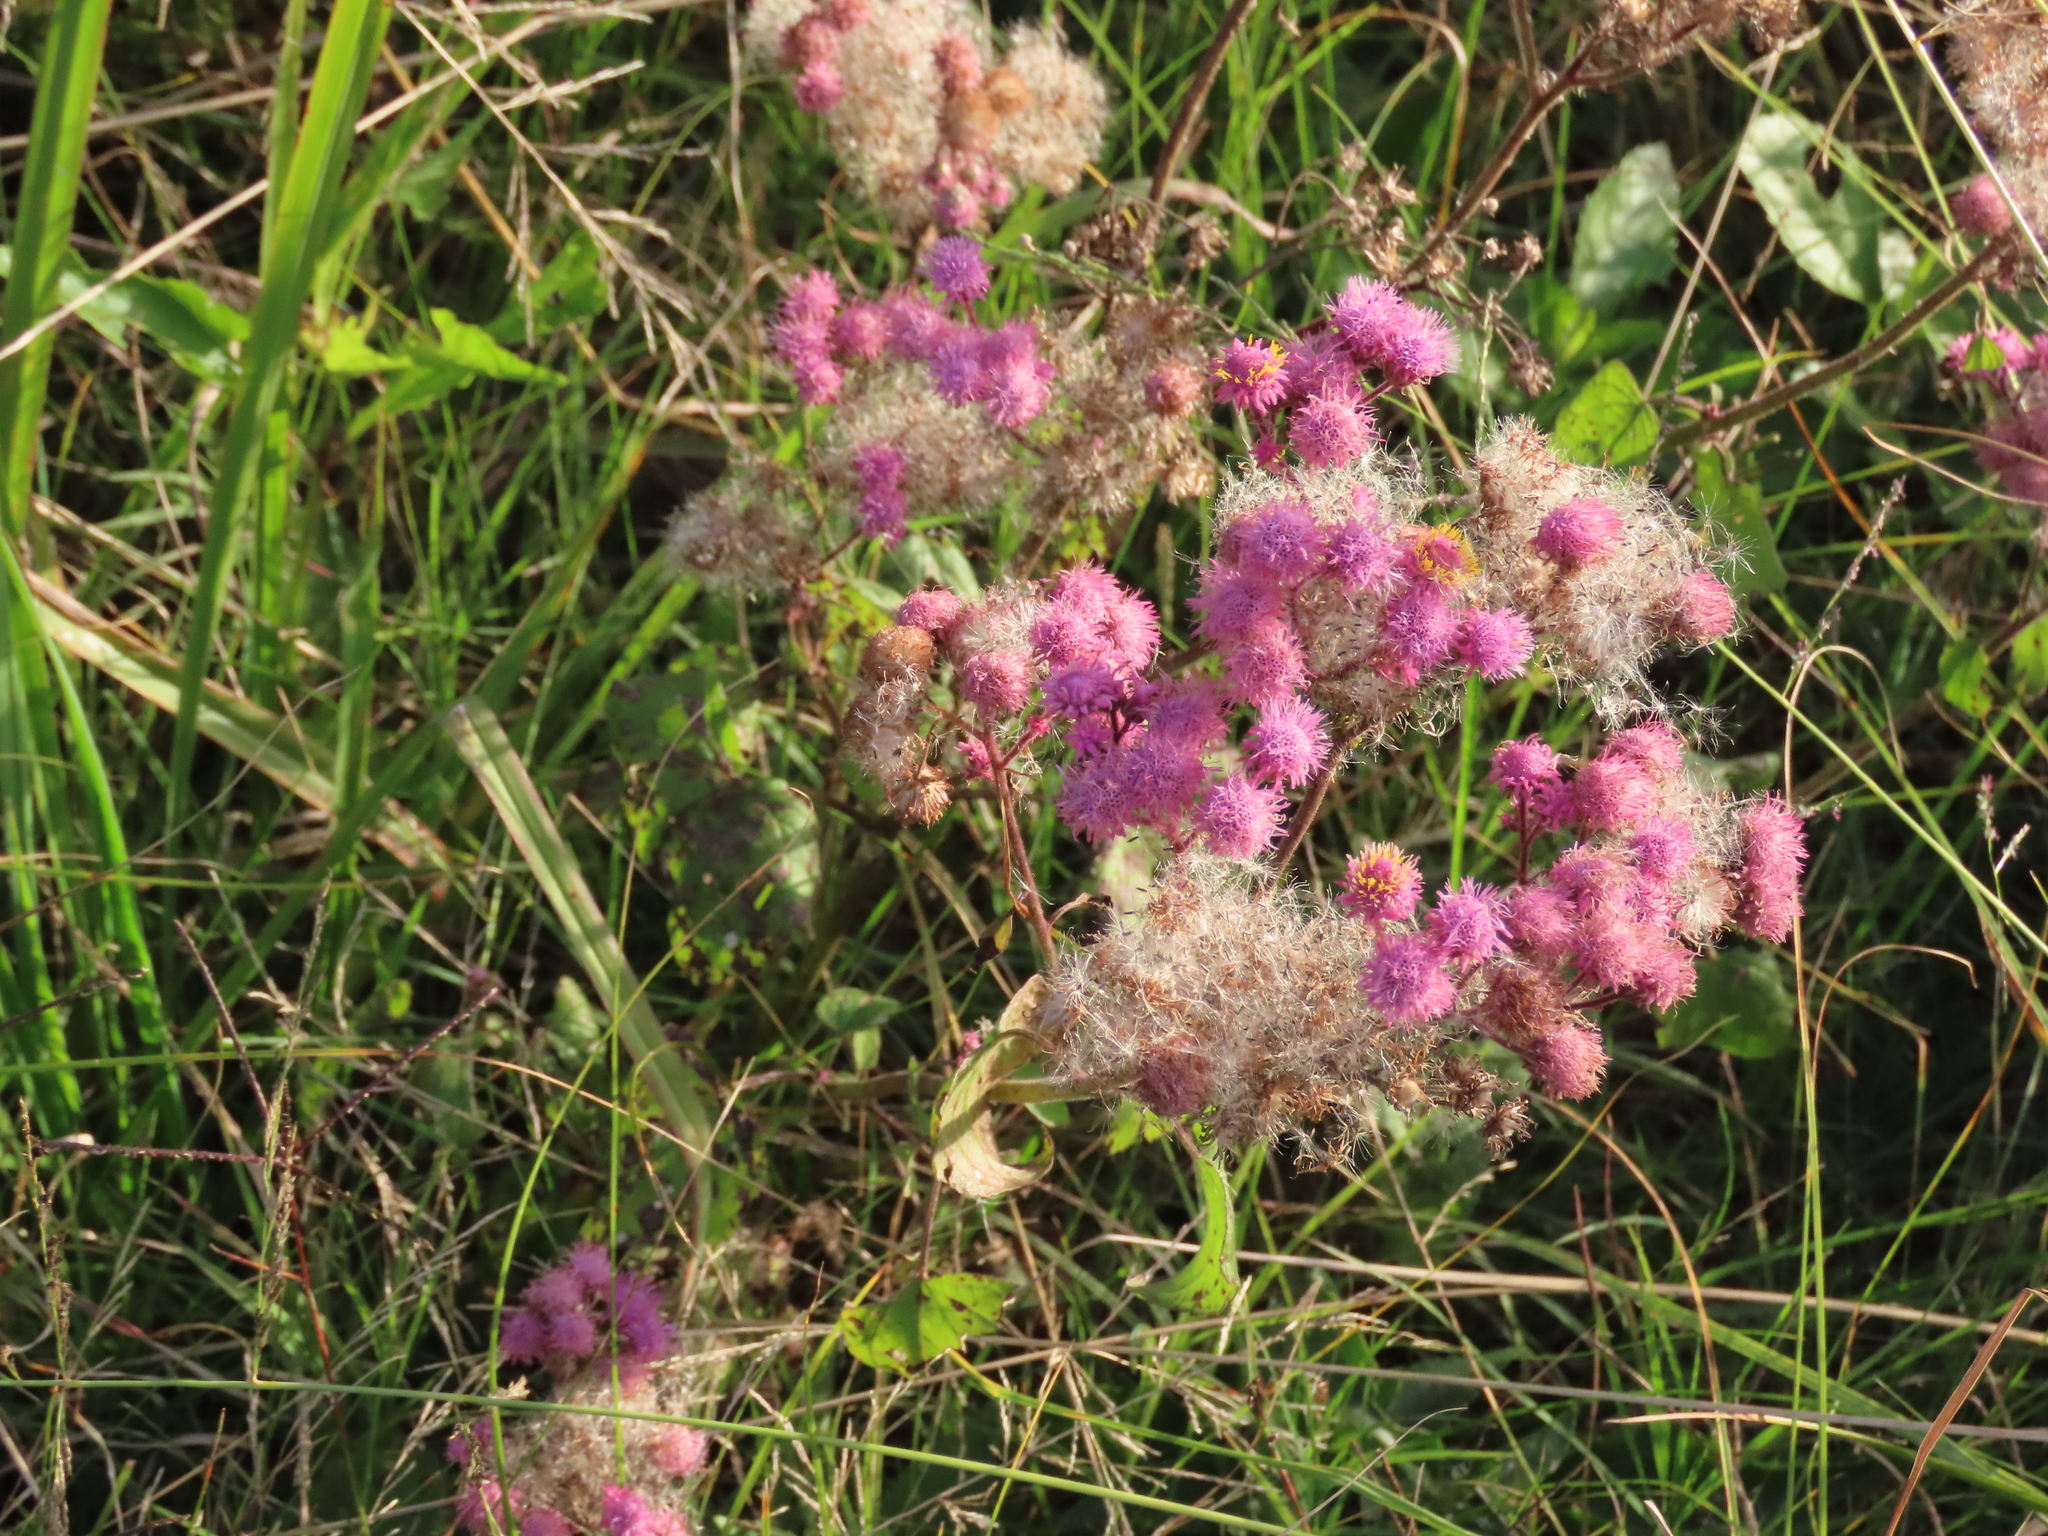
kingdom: Plantae
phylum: Tracheophyta
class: Magnoliopsida
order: Asterales
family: Asteraceae
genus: Urolepis
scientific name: Urolepis hecatantha
